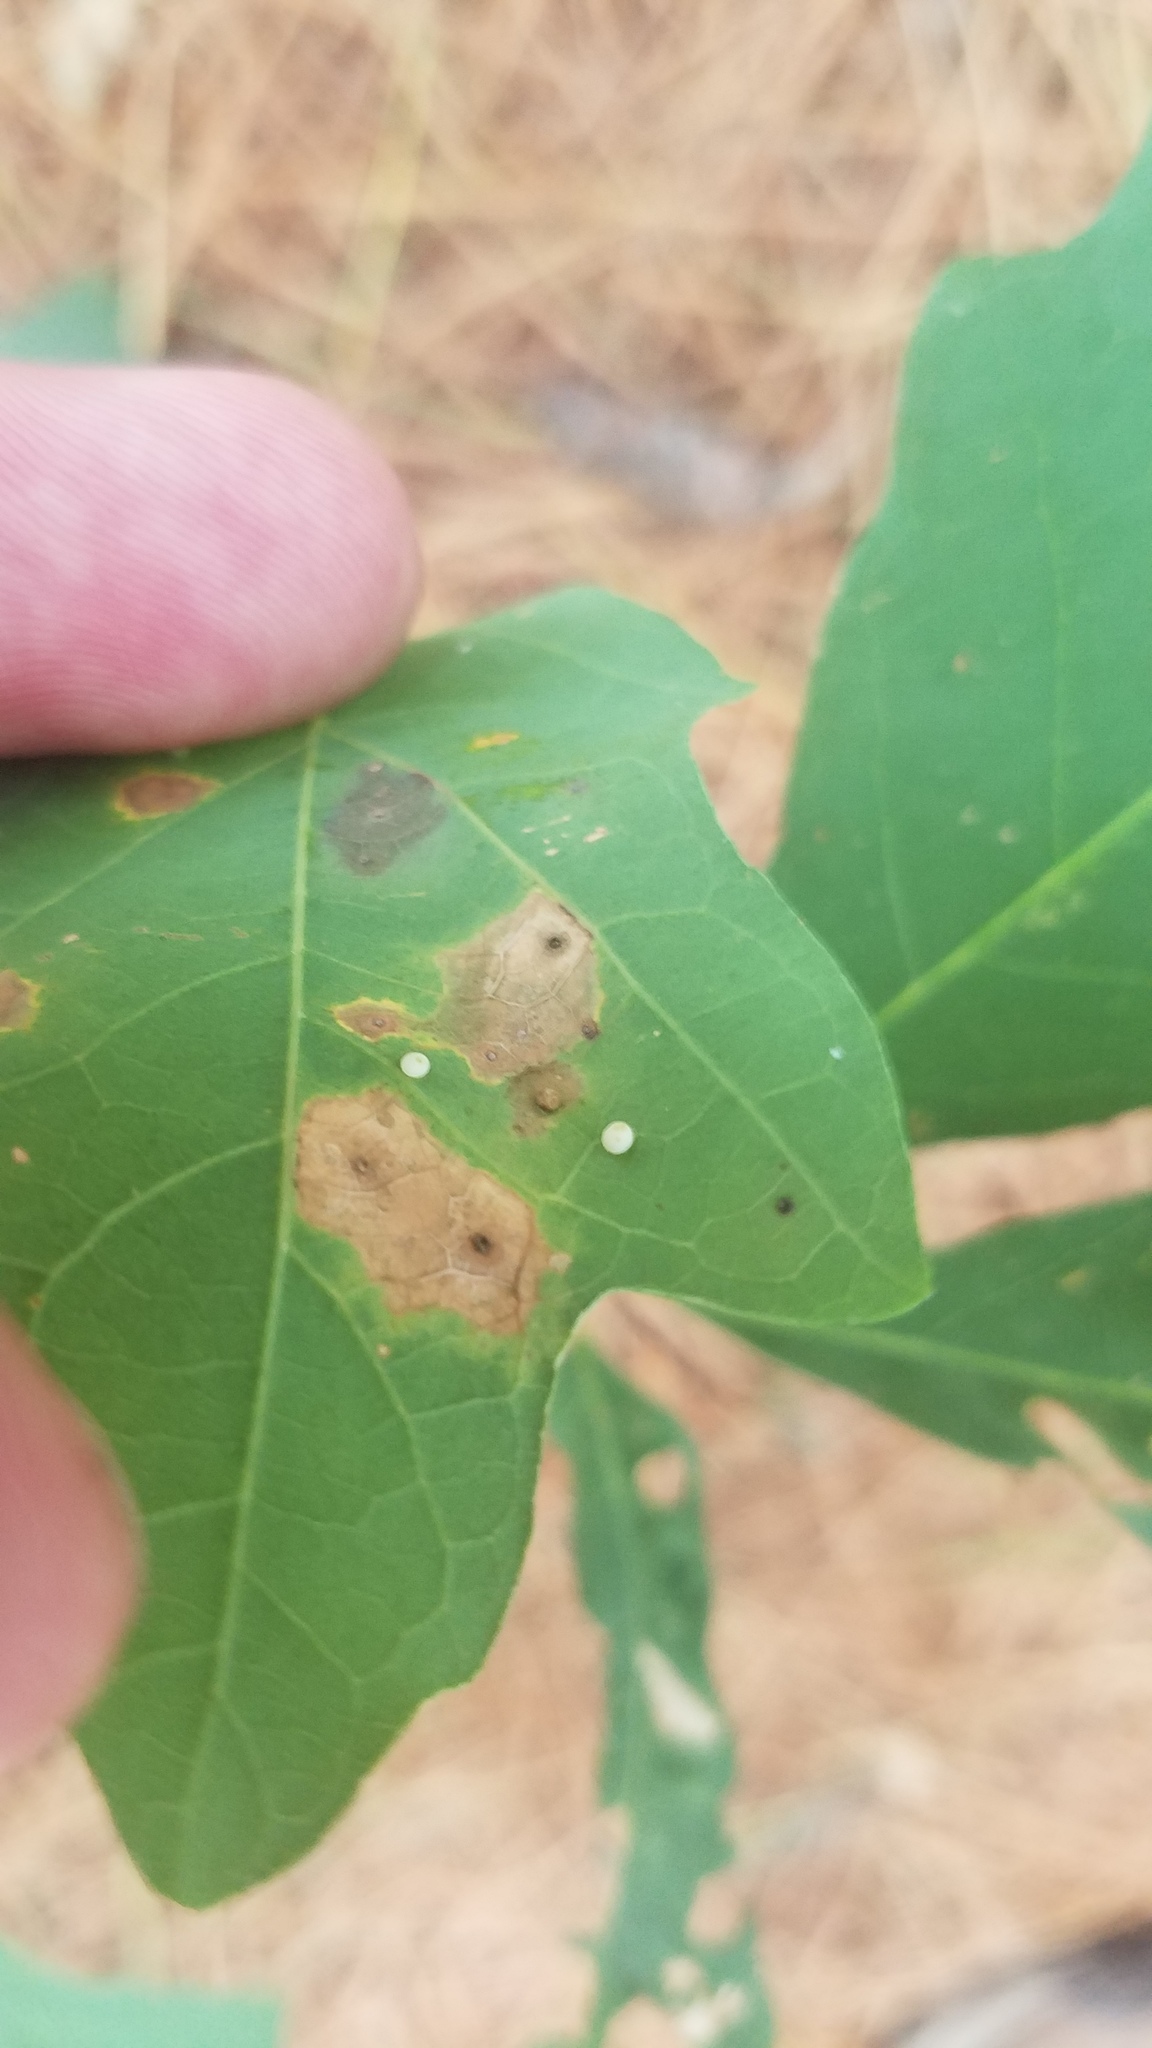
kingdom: Animalia
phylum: Arthropoda
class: Insecta
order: Diptera
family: Cecidomyiidae
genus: Acericecis
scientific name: Acericecis ocellaris
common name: Ocellate gall midge
